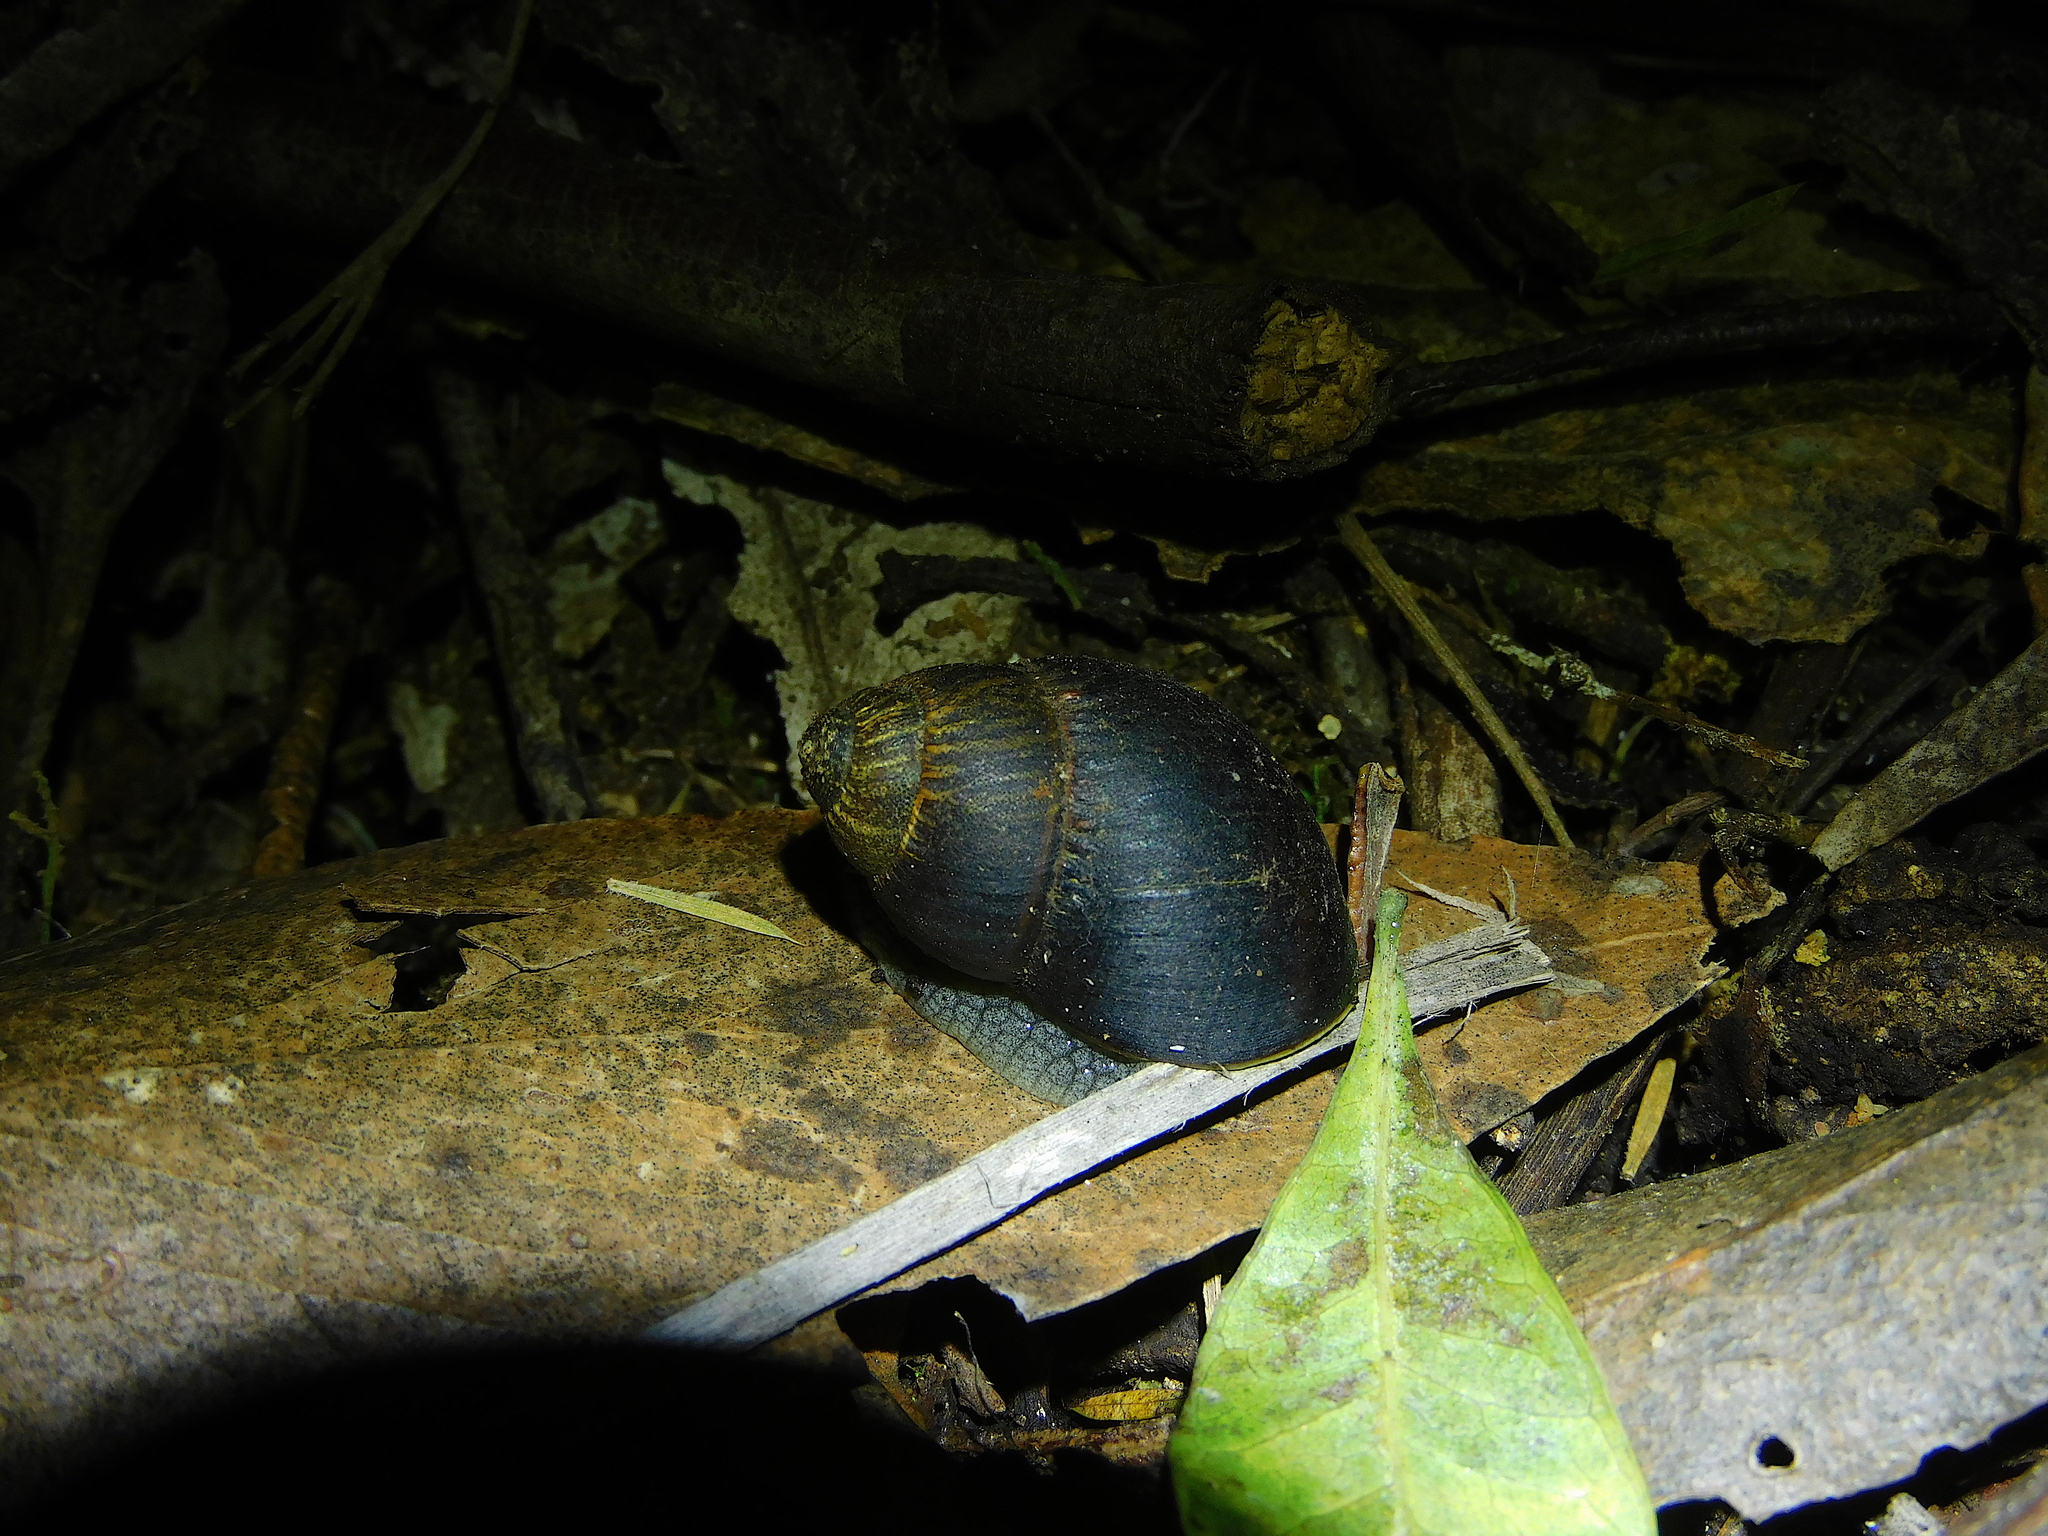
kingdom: Animalia
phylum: Mollusca
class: Gastropoda
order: Stylommatophora
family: Caryodidae
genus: Caryodes
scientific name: Caryodes dufresnii
